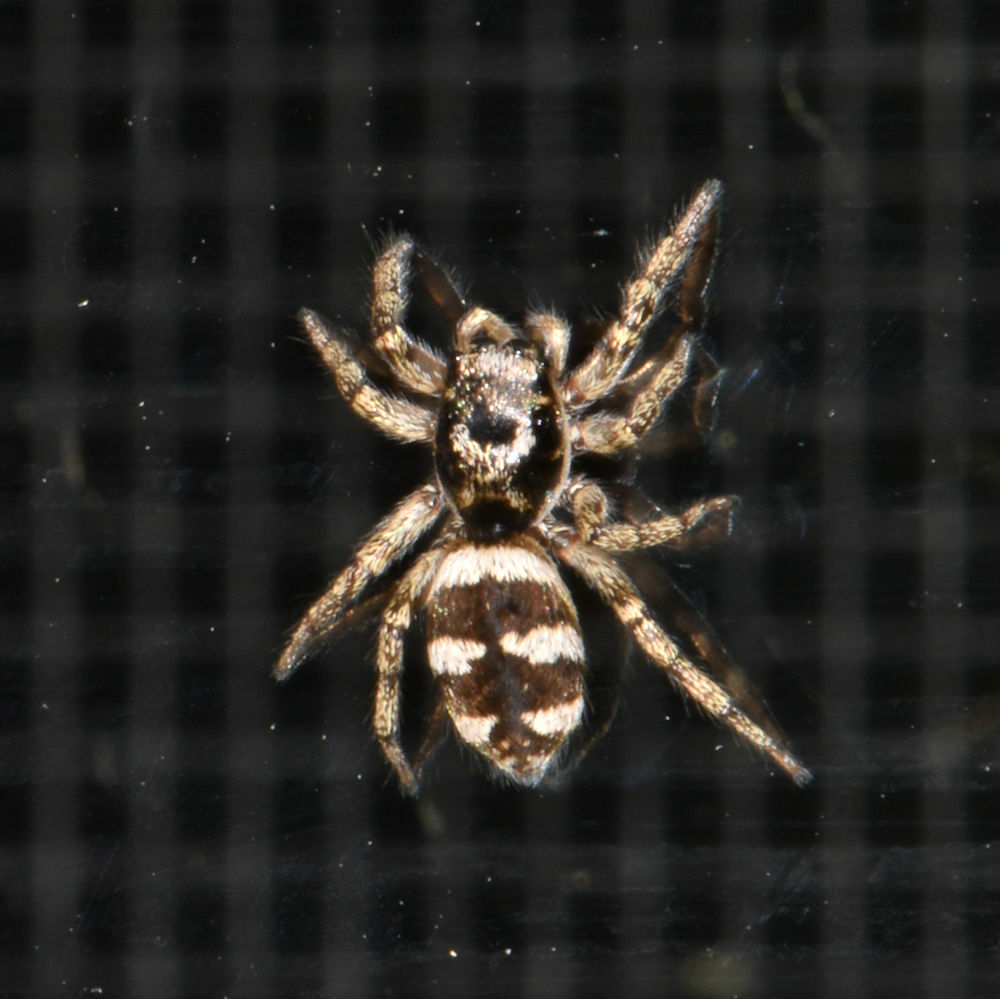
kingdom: Animalia
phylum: Arthropoda
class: Arachnida
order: Araneae
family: Salticidae
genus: Salticus
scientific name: Salticus scenicus
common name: Zebra jumper
